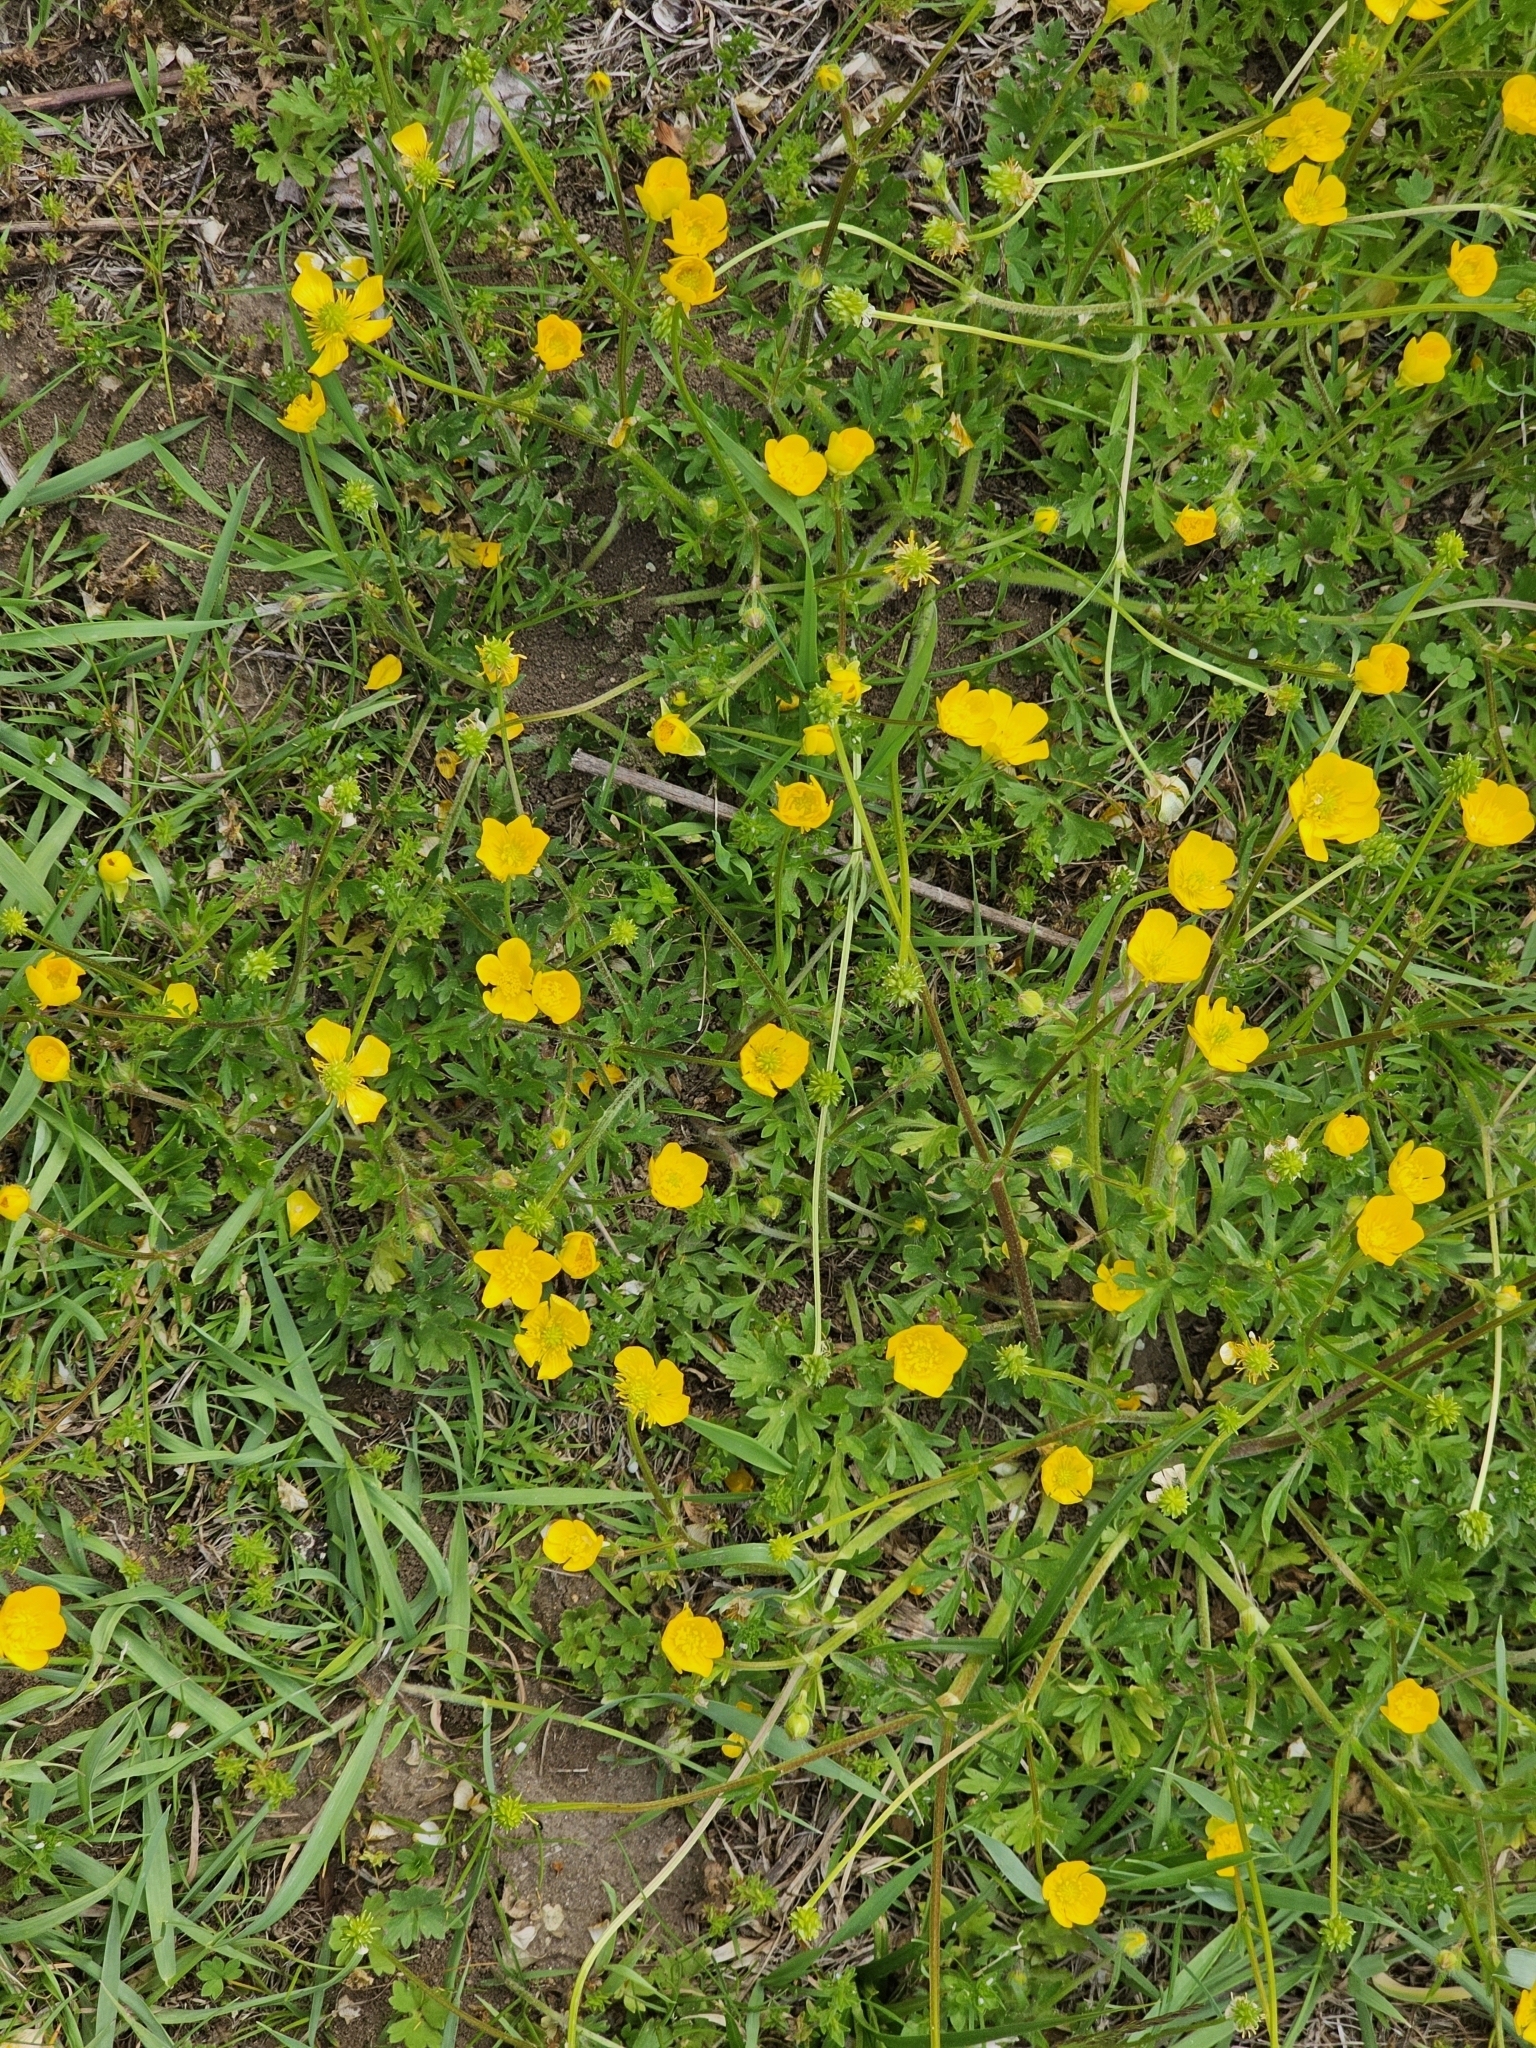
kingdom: Plantae
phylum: Tracheophyta
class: Magnoliopsida
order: Ranunculales
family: Ranunculaceae
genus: Ranunculus
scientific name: Ranunculus bulbosus
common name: Bulbous buttercup
